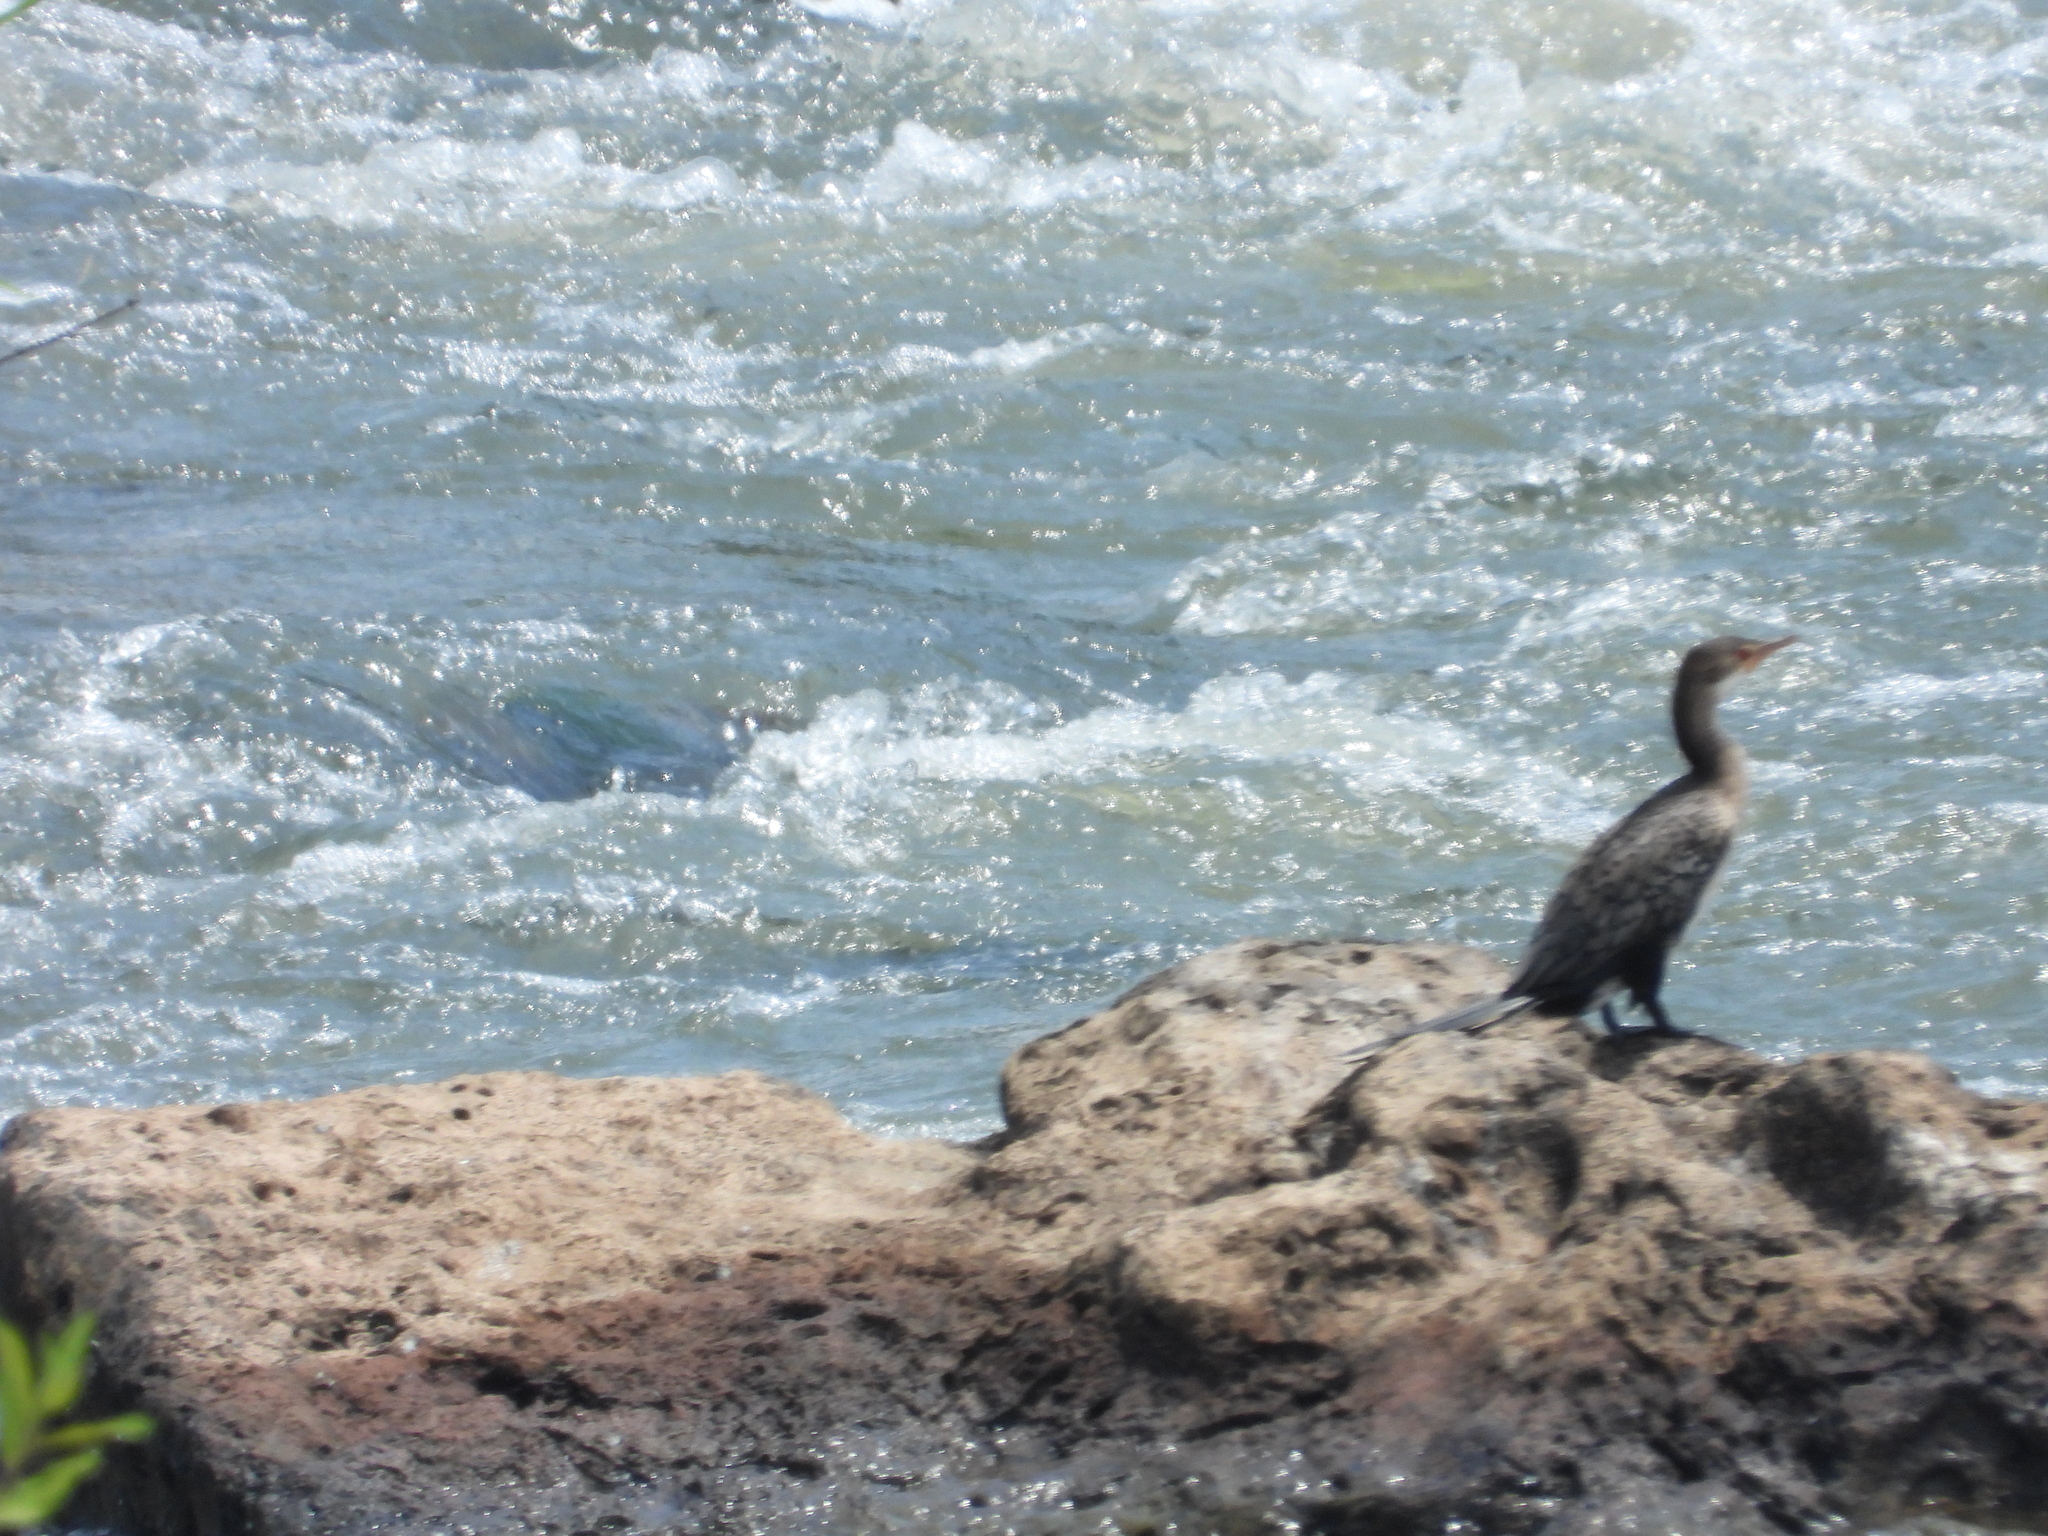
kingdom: Animalia
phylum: Chordata
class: Aves
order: Suliformes
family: Phalacrocoracidae
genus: Microcarbo
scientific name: Microcarbo africanus
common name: Long-tailed cormorant
